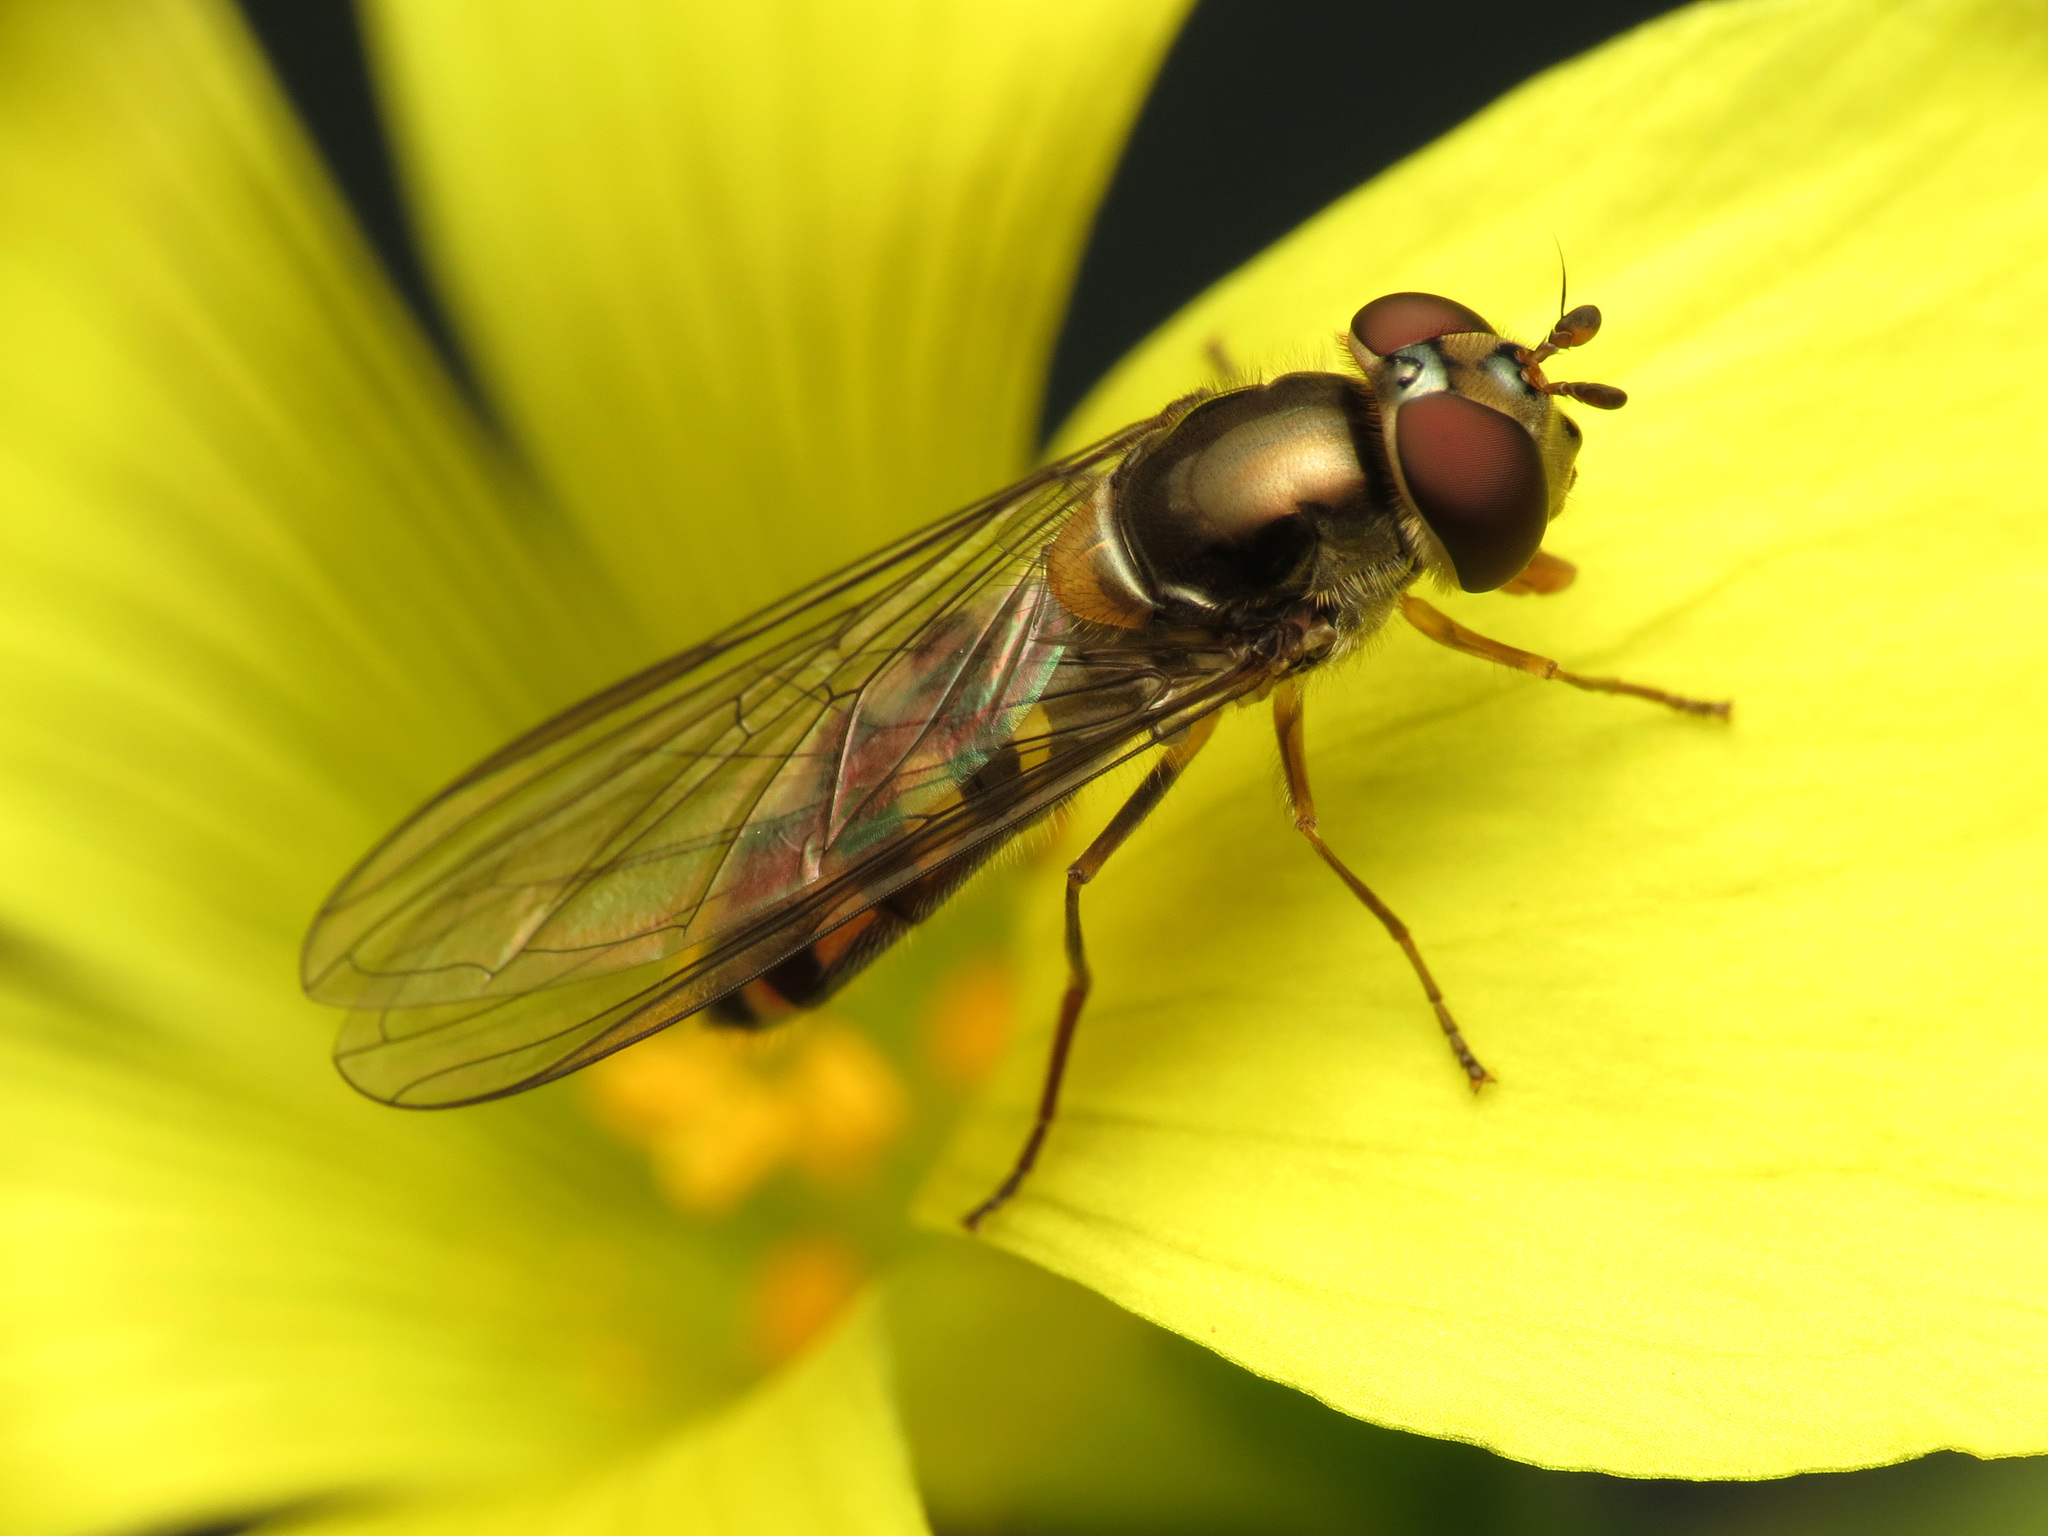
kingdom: Animalia
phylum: Arthropoda
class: Insecta
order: Diptera
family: Syrphidae
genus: Meliscaeva
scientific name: Meliscaeva auricollis
